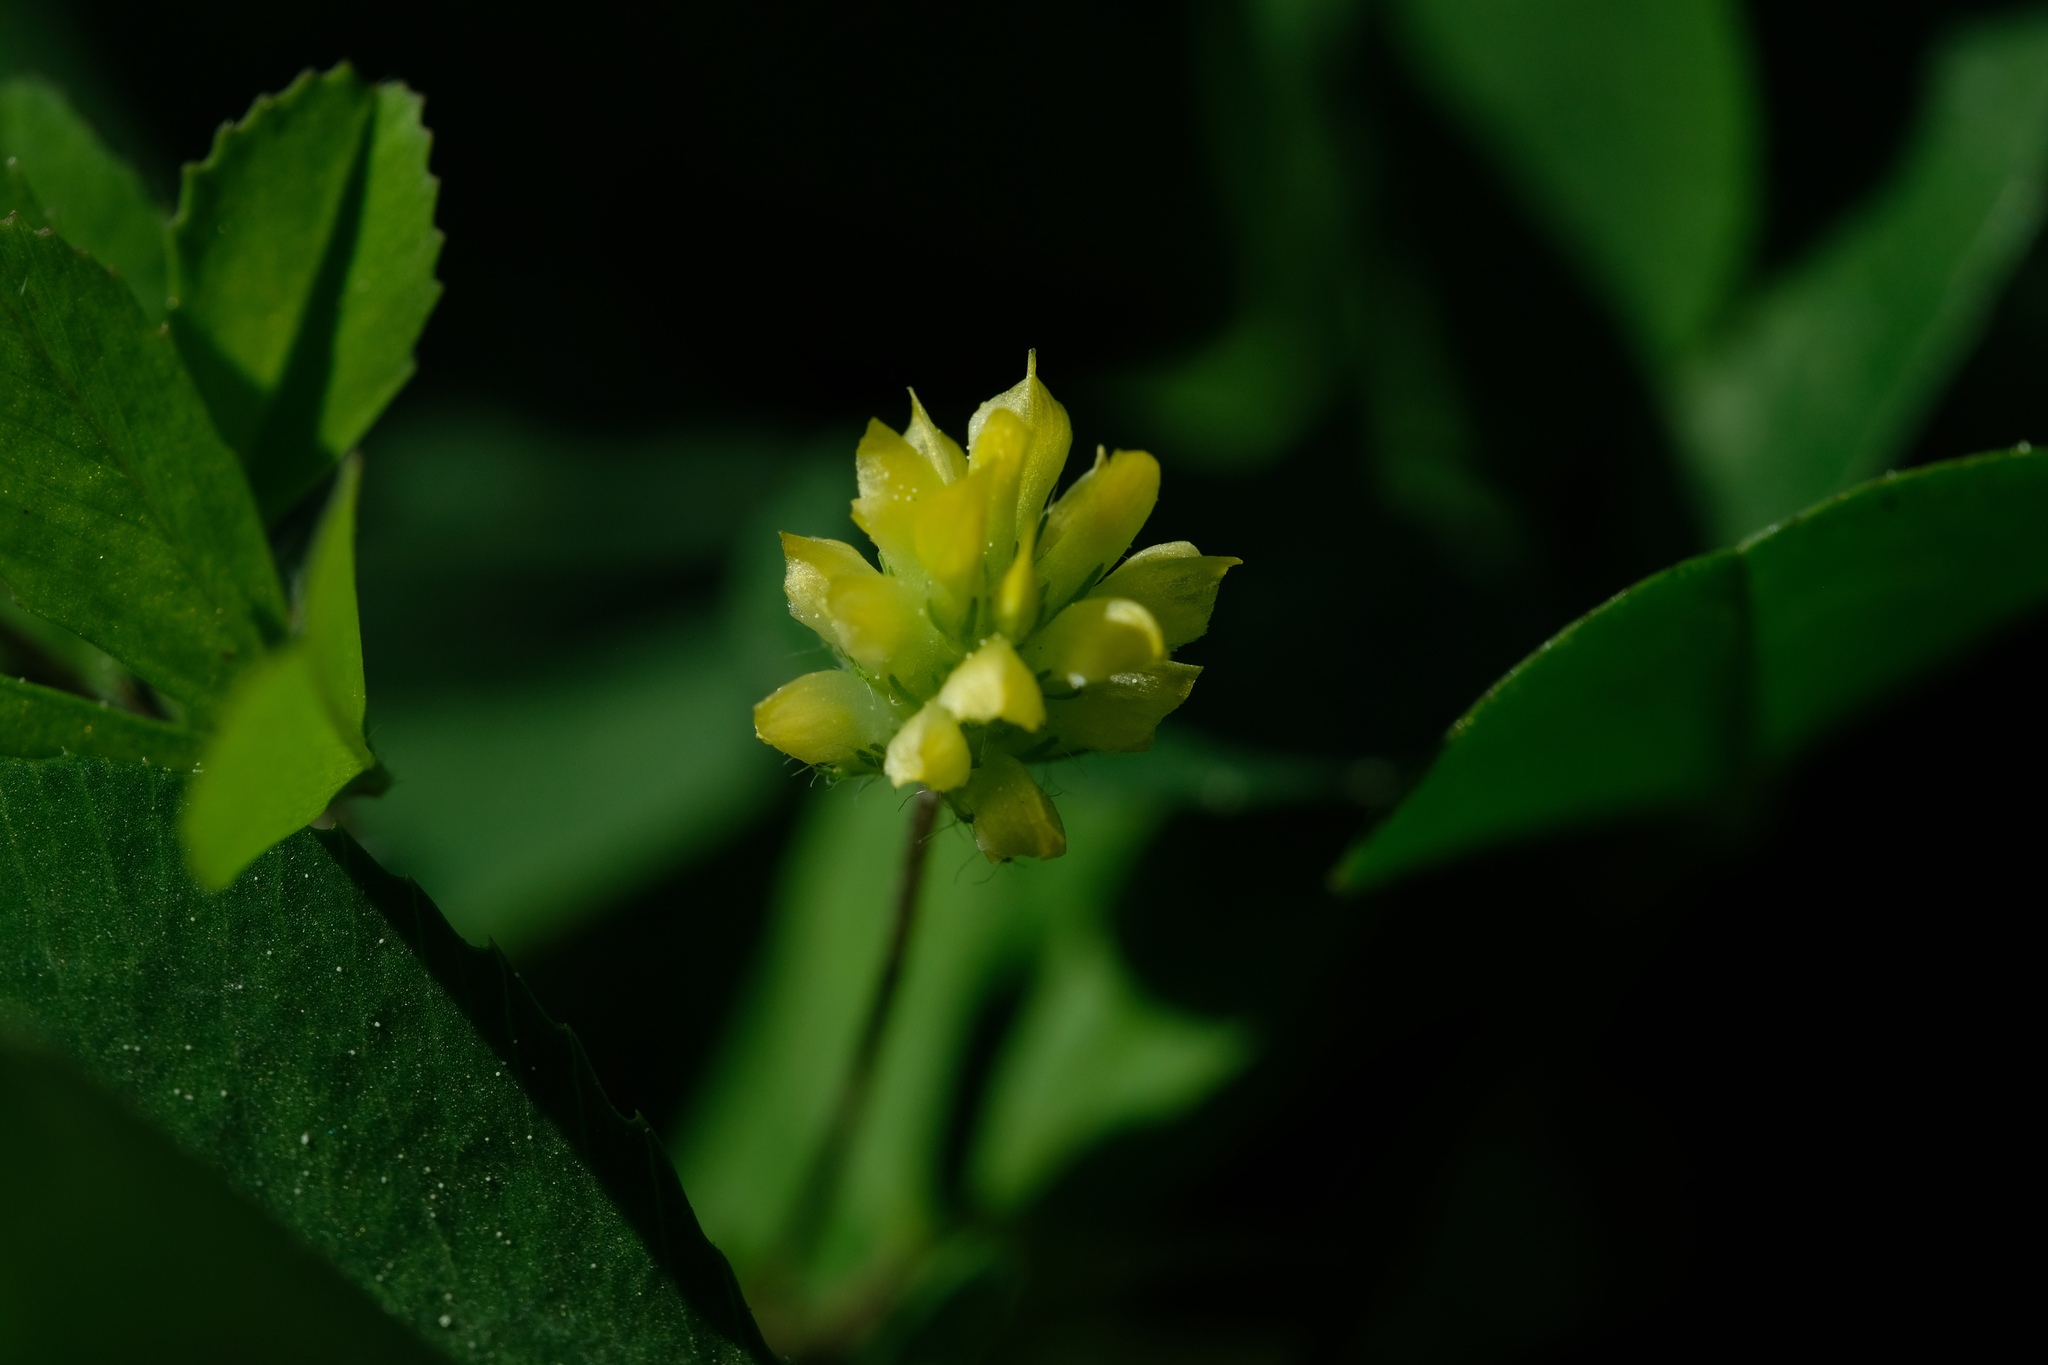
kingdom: Plantae
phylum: Tracheophyta
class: Magnoliopsida
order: Fabales
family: Fabaceae
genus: Trifolium
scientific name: Trifolium dubium
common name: Suckling clover
